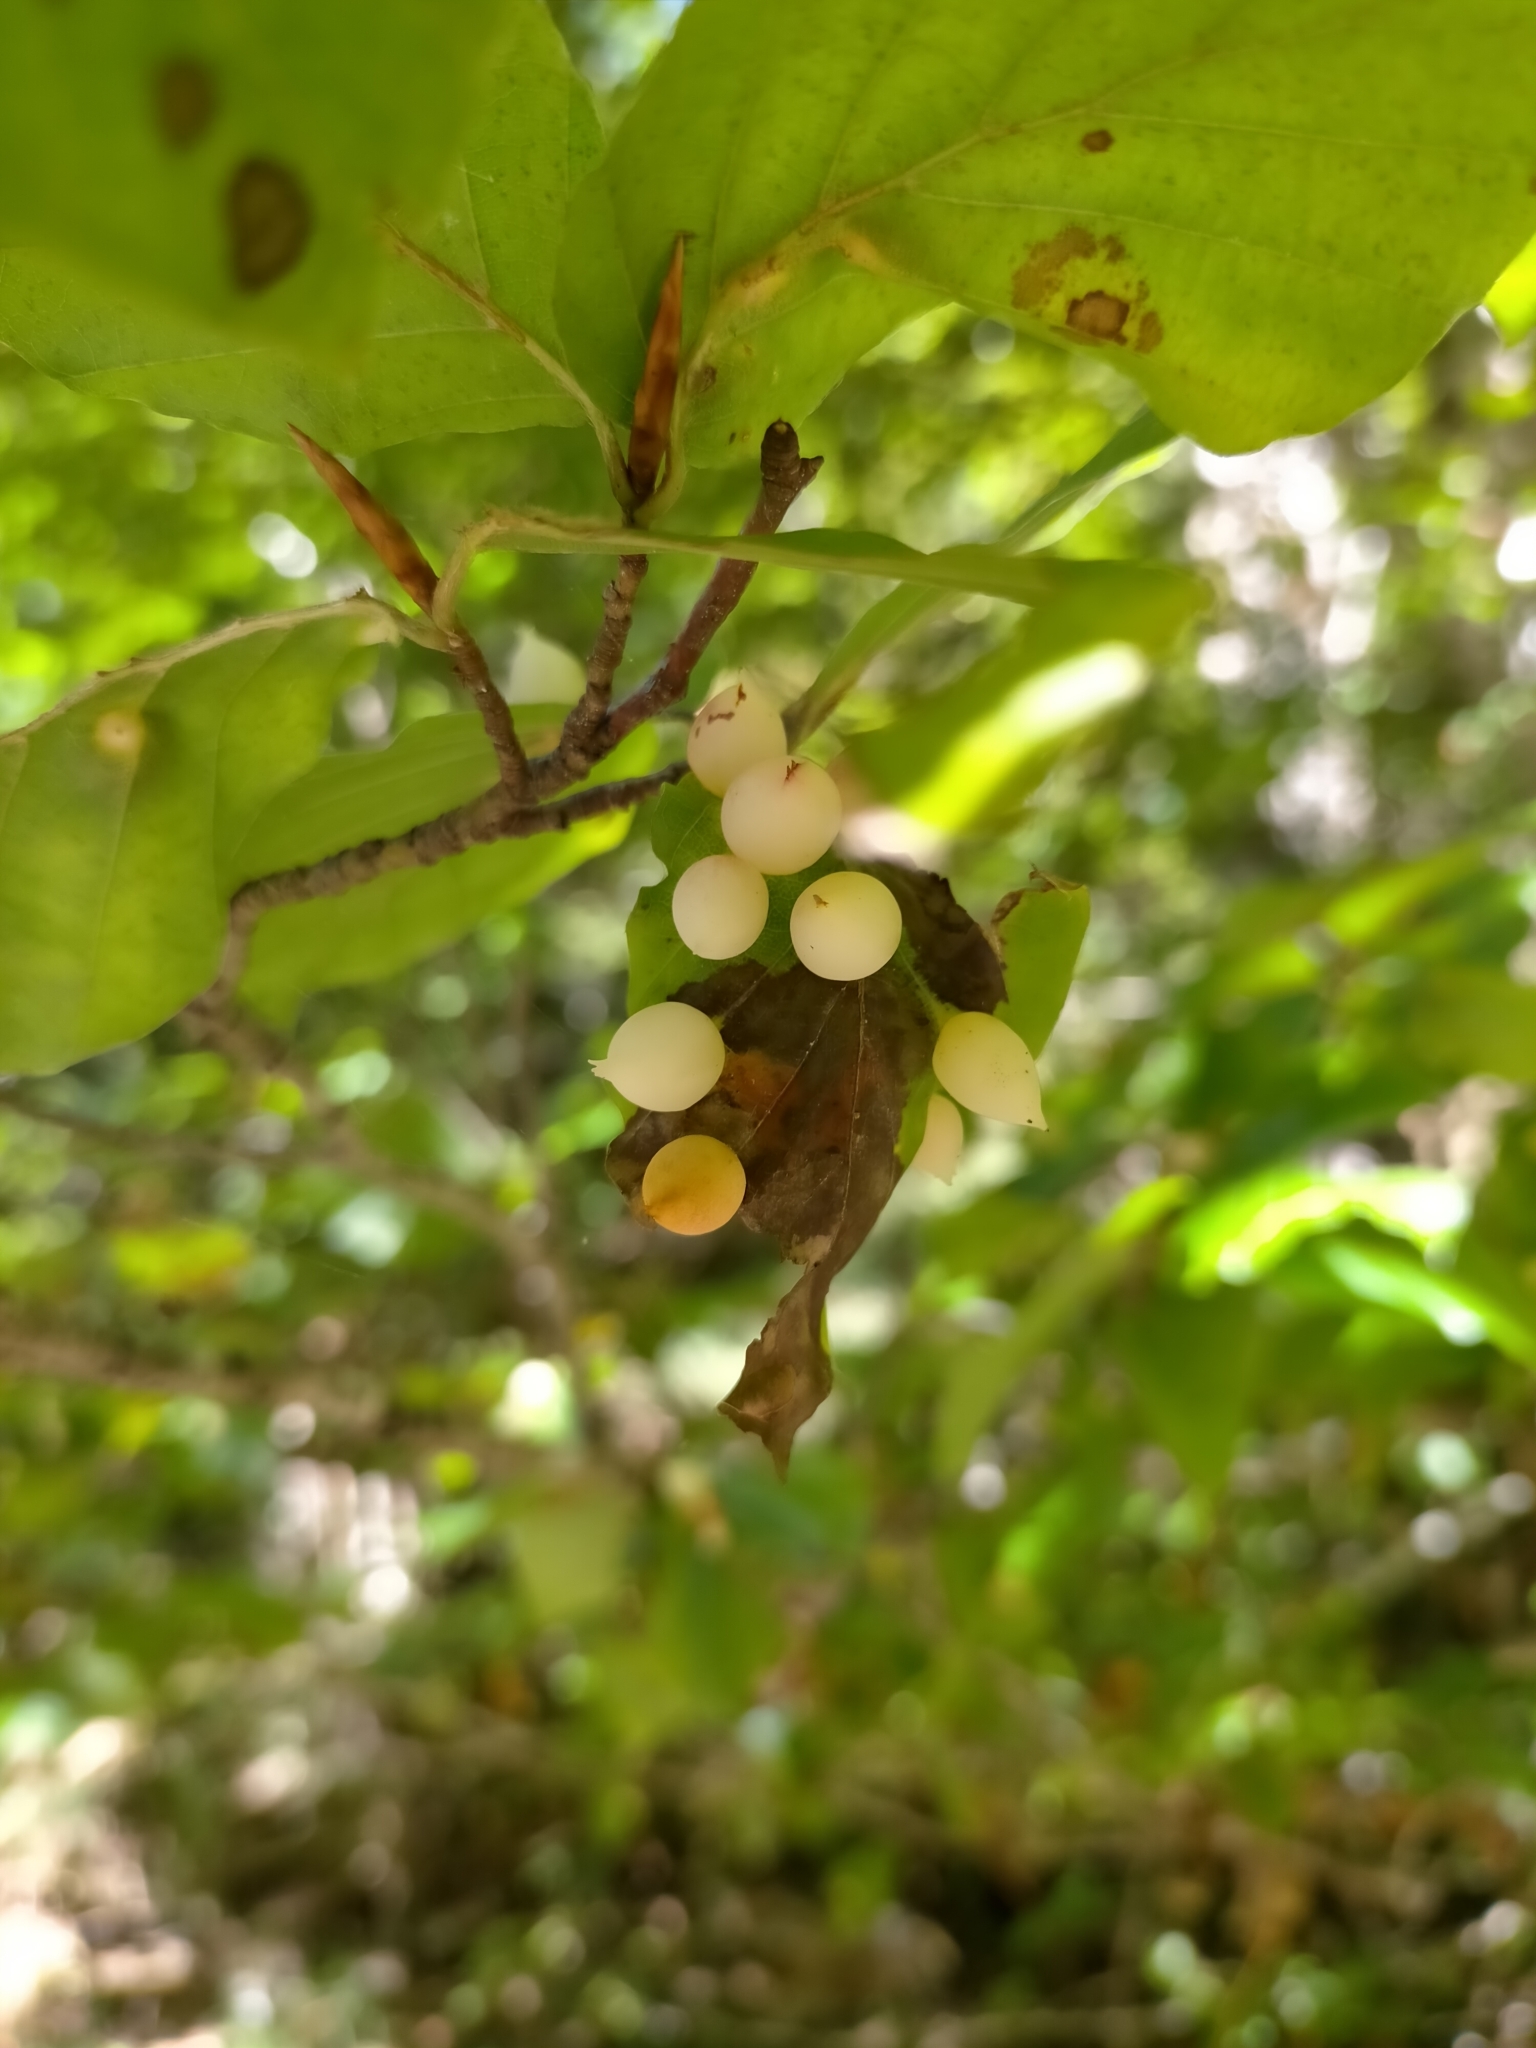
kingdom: Animalia
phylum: Arthropoda
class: Insecta
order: Diptera
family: Cecidomyiidae
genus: Mikiola
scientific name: Mikiola fagi
